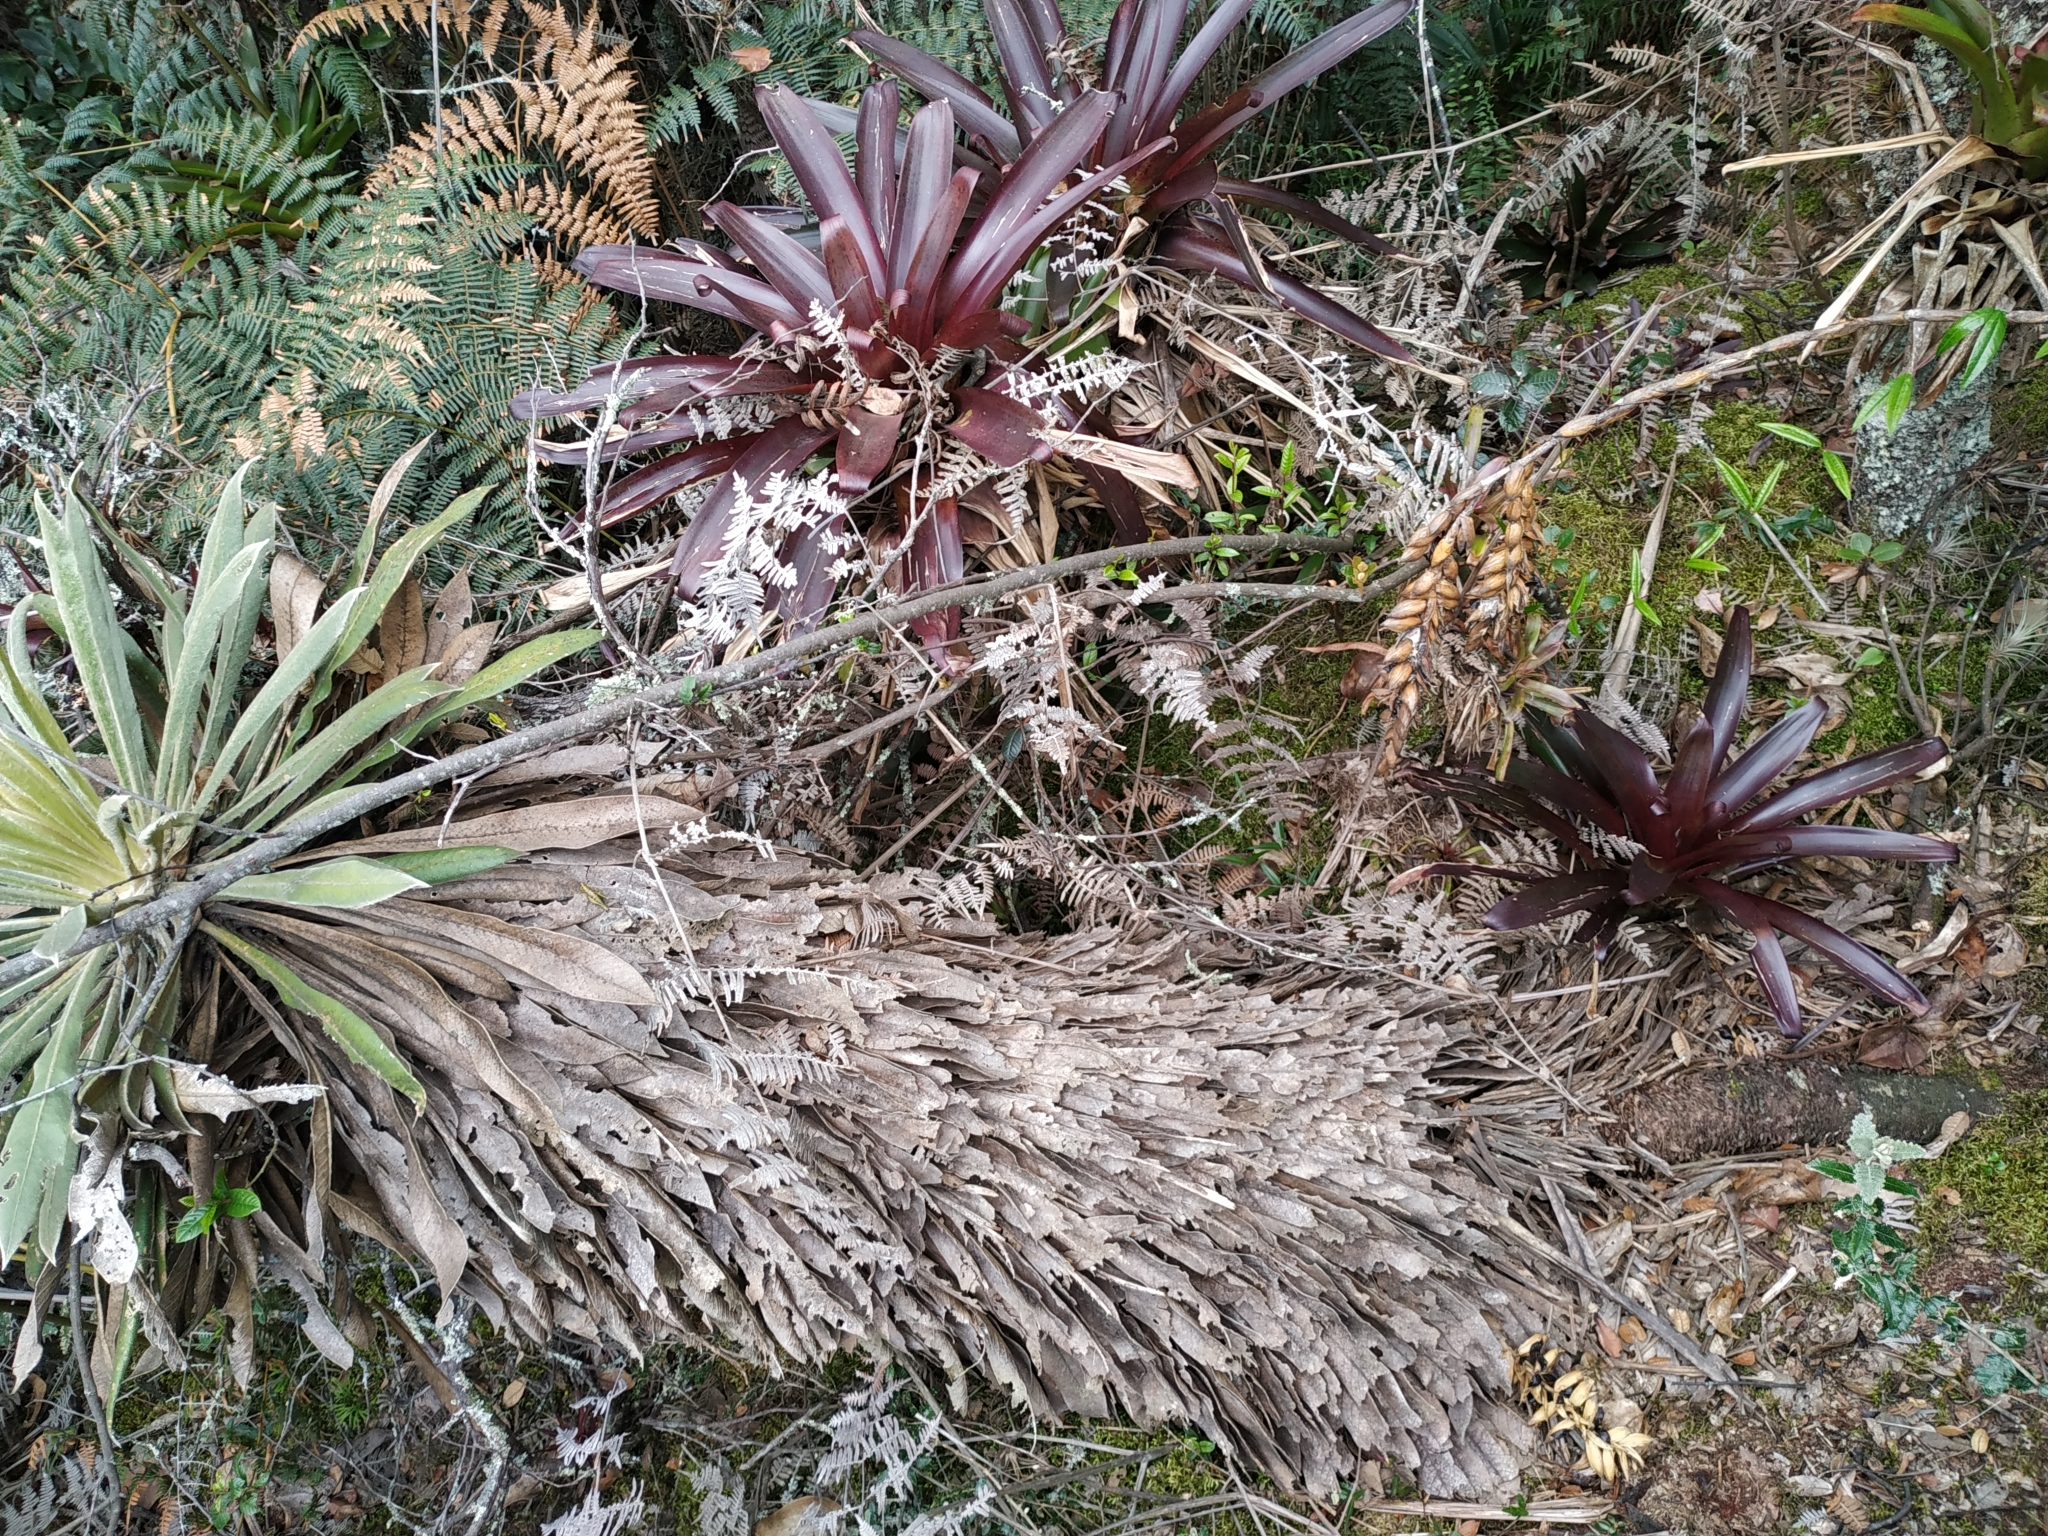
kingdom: Plantae
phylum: Tracheophyta
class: Magnoliopsida
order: Asterales
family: Asteraceae
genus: Espeletia
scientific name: Espeletia corymbosa
